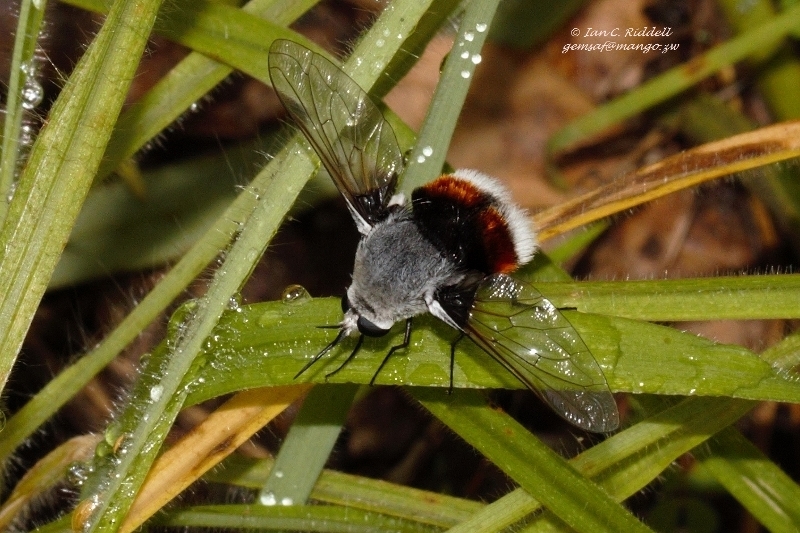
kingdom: Animalia
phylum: Arthropoda
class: Insecta
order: Diptera
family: Bombyliidae
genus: Bombomyia
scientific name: Bombomyia bombiformis
